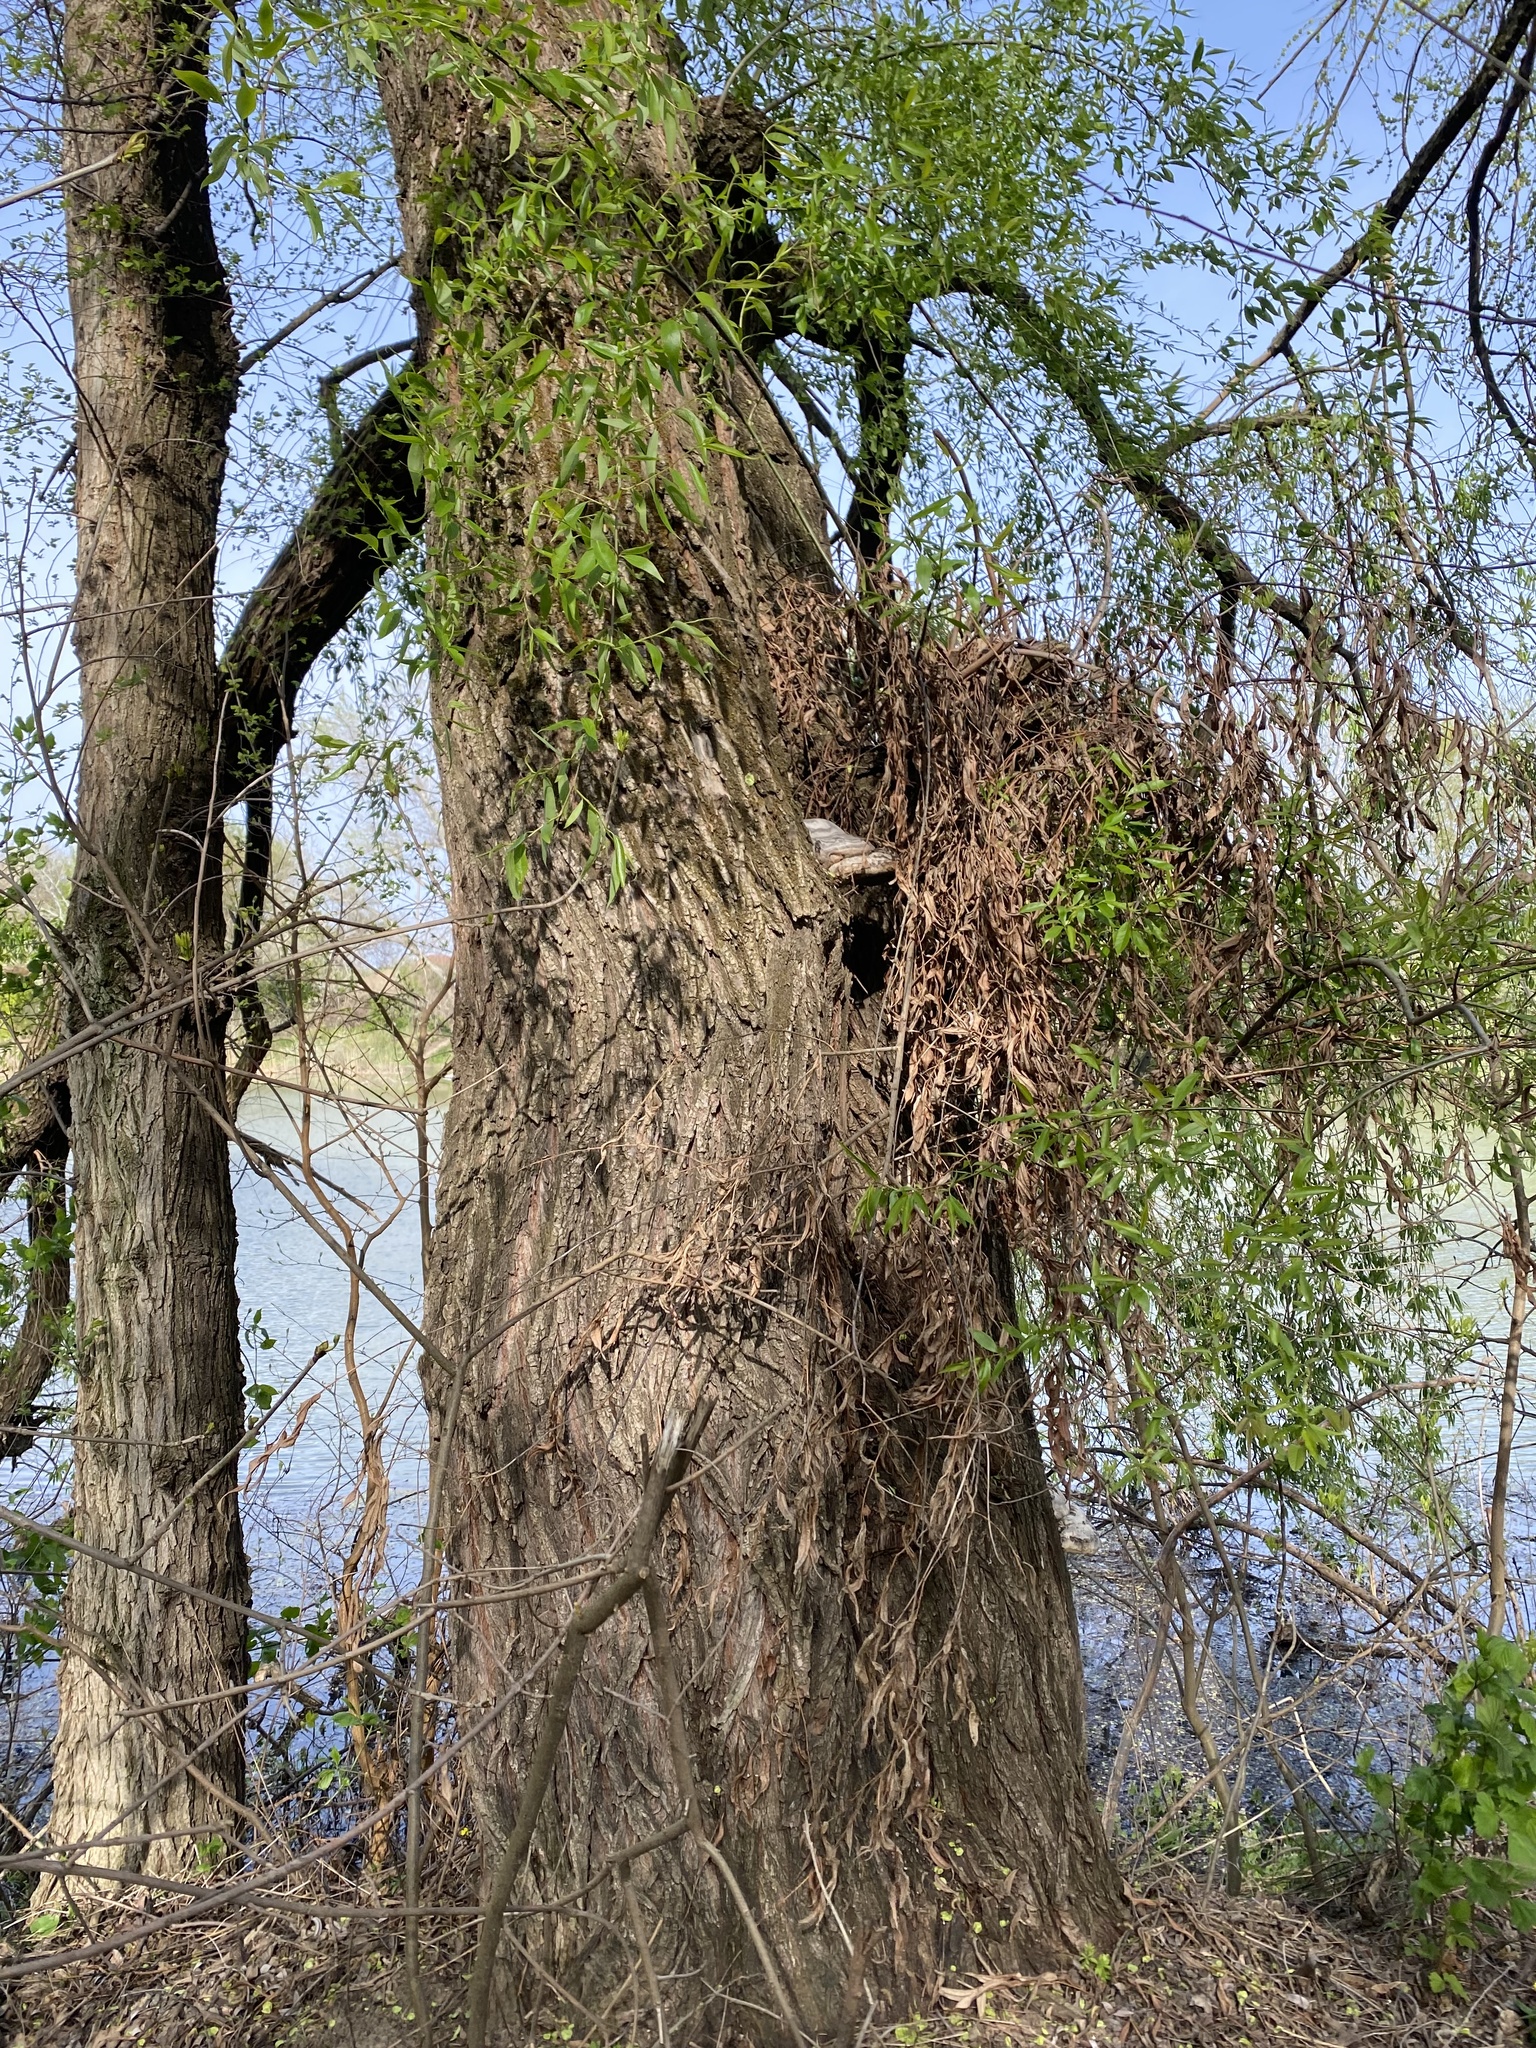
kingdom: Fungi
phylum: Basidiomycota
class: Agaricomycetes
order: Polyporales
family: Polyporaceae
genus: Fomes
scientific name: Fomes fomentarius
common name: Hoof fungus
